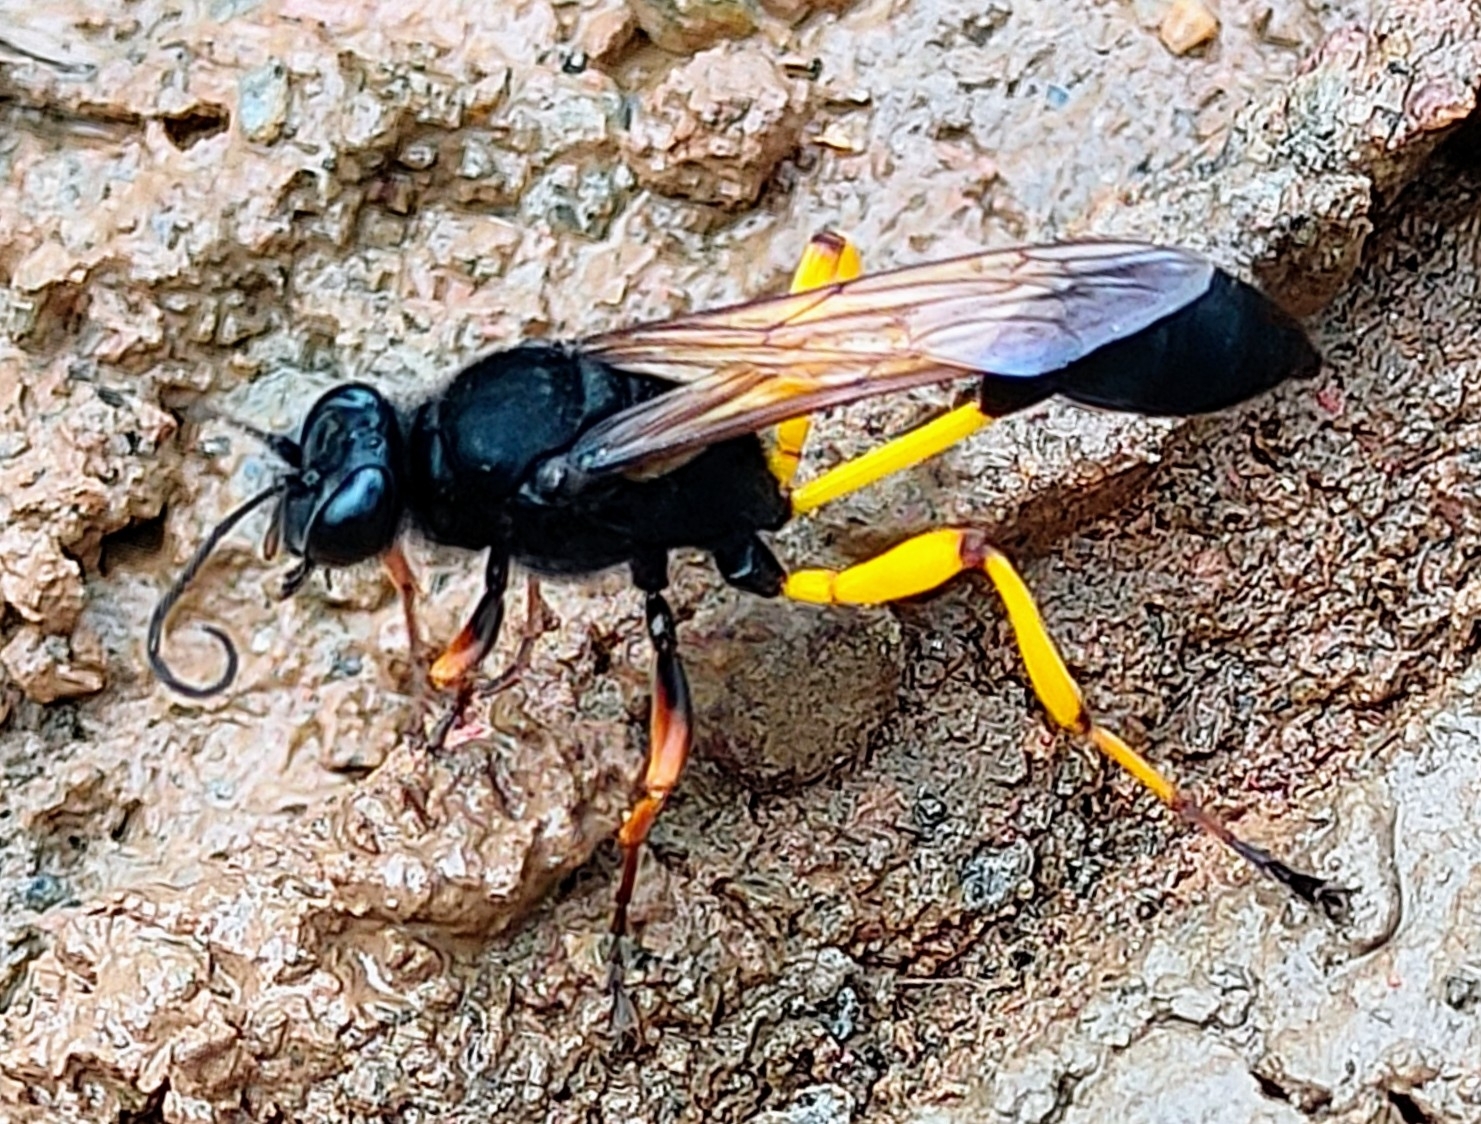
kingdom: Animalia
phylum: Arthropoda
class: Insecta
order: Hymenoptera
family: Sphecidae
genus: Sceliphron
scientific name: Sceliphron javanum
